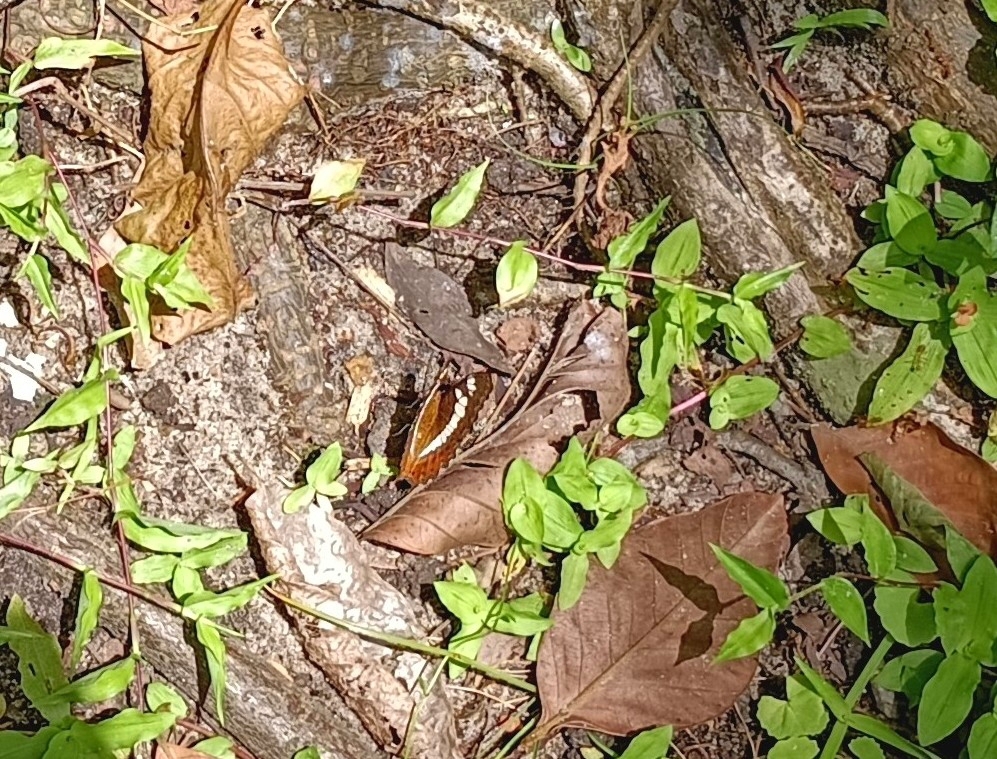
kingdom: Animalia
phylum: Arthropoda
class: Insecta
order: Lepidoptera
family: Nymphalidae
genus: Limenitis
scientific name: Limenitis Moduza procris
